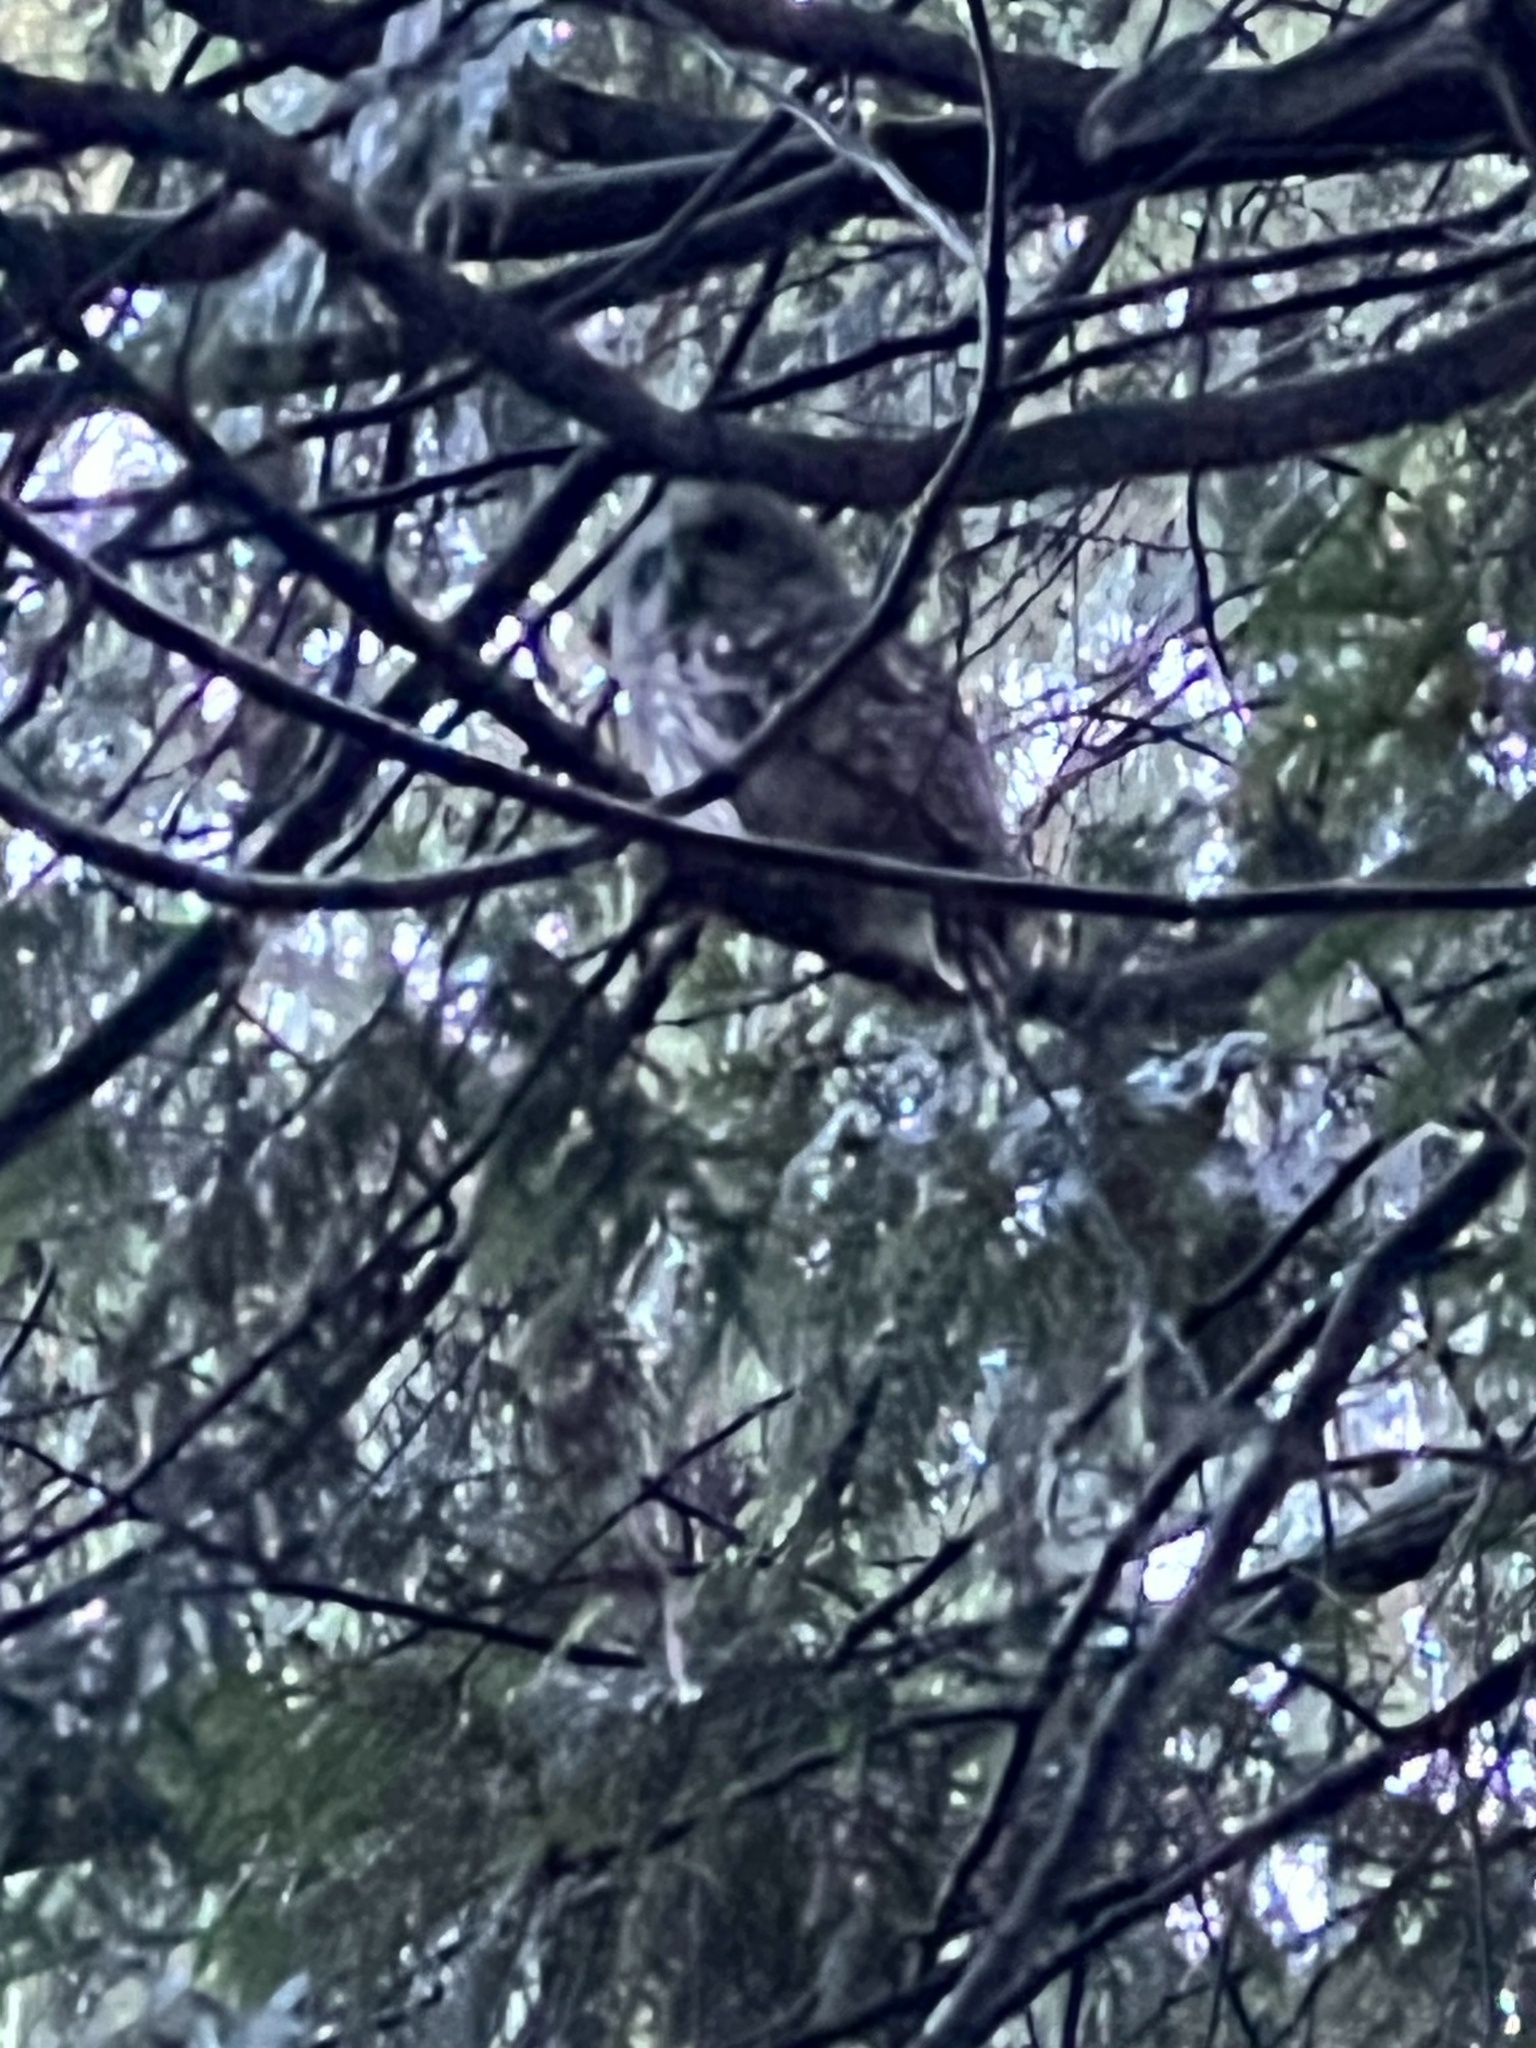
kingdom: Animalia
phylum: Chordata
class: Aves
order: Strigiformes
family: Strigidae
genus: Strix
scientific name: Strix varia
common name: Barred owl
